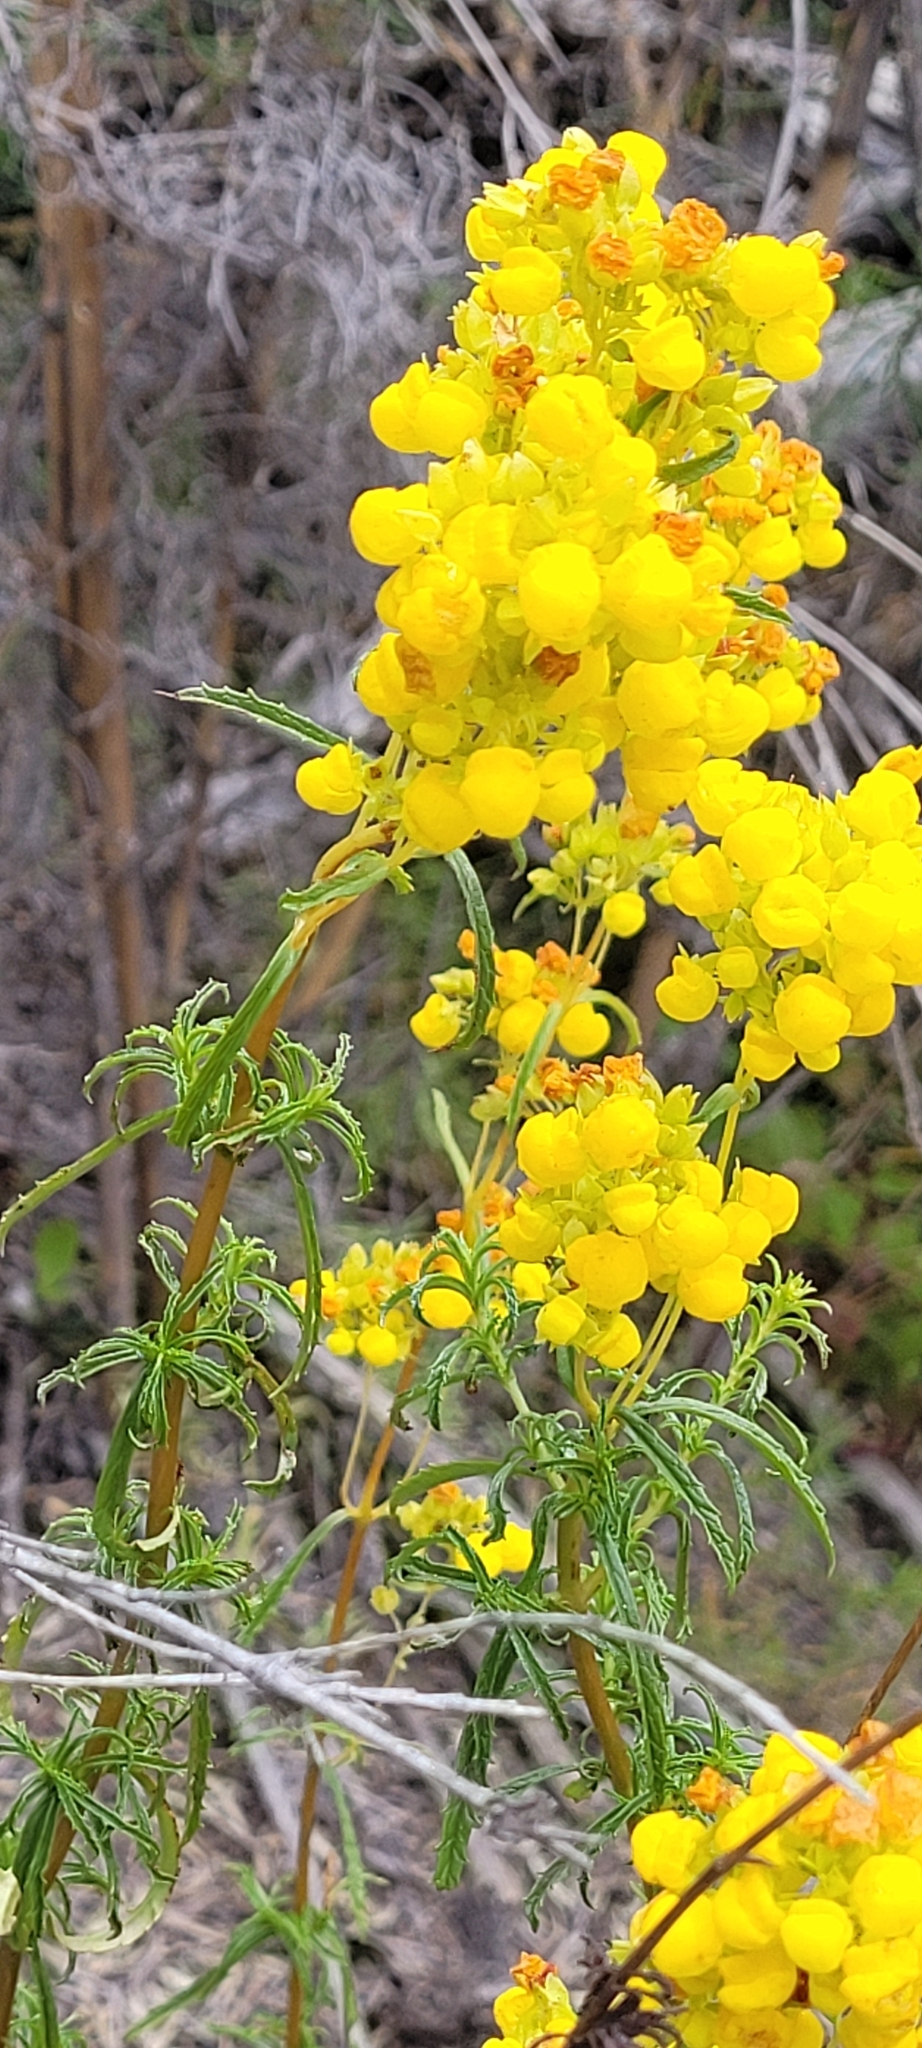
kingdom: Plantae
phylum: Tracheophyta
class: Magnoliopsida
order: Lamiales
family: Calceolariaceae
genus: Calceolaria
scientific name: Calceolaria thyrsiflora
